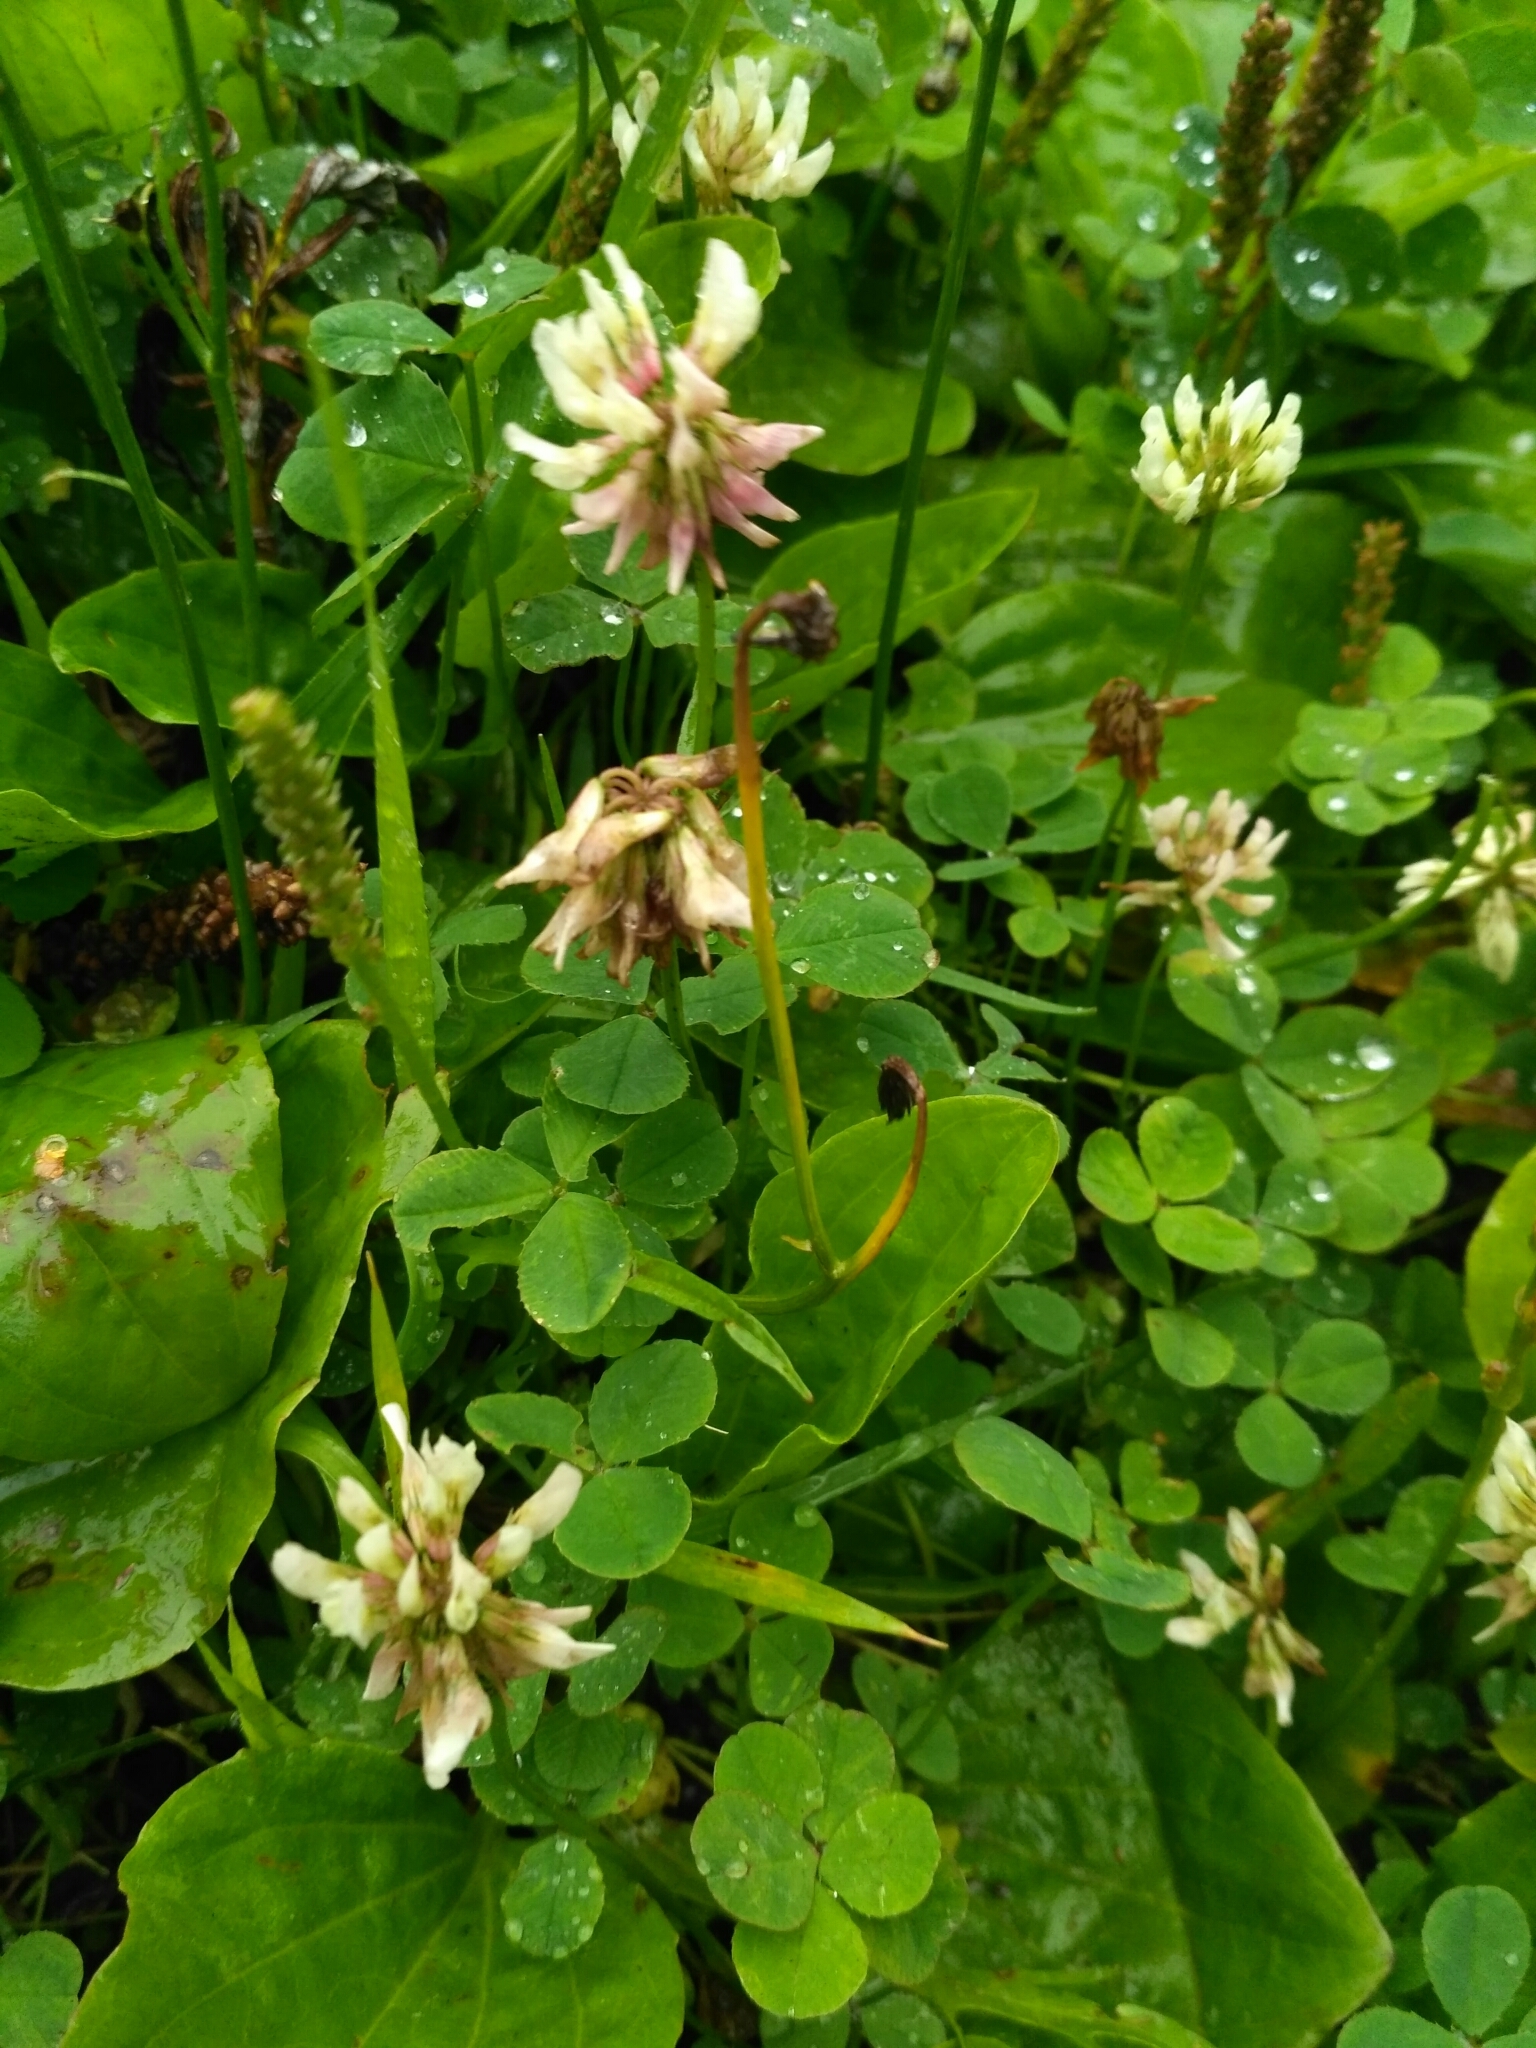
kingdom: Plantae
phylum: Tracheophyta
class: Magnoliopsida
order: Fabales
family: Fabaceae
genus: Trifolium
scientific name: Trifolium repens
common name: White clover
